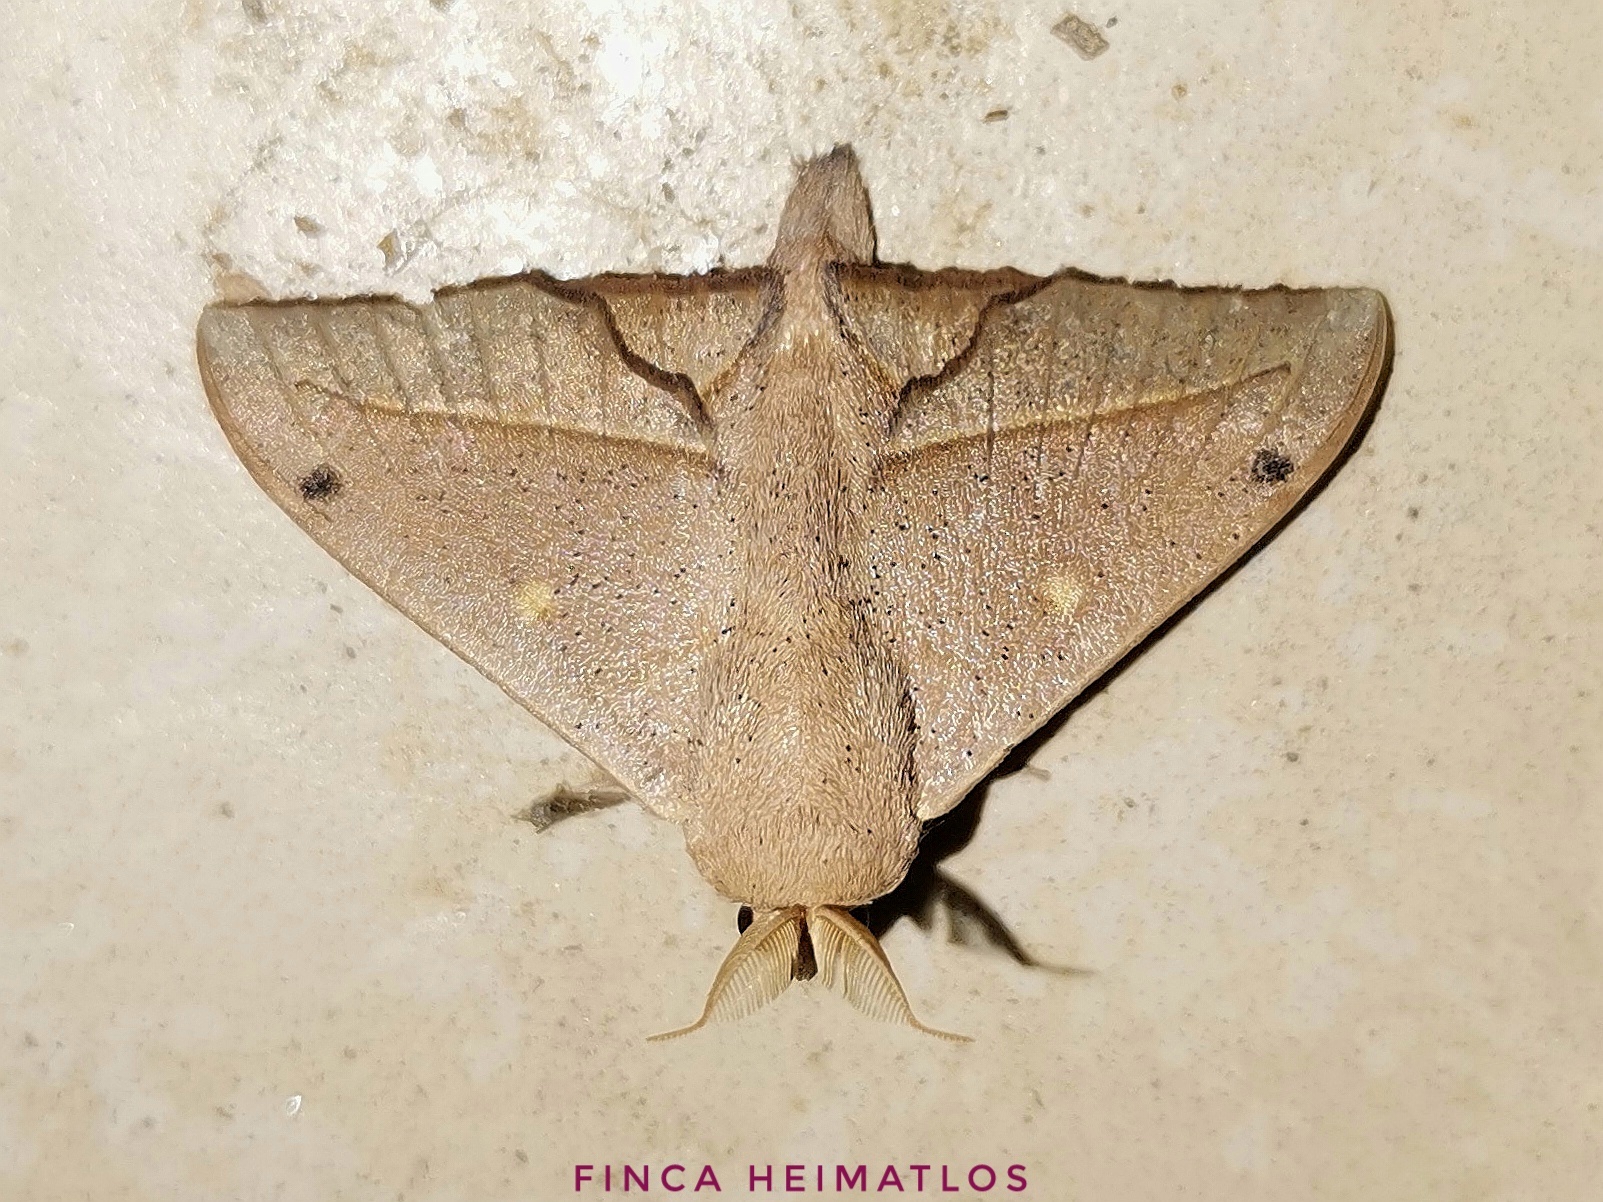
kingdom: Animalia
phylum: Arthropoda
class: Insecta
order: Lepidoptera
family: Mimallonidae
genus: Druentica
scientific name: Druentica partha
